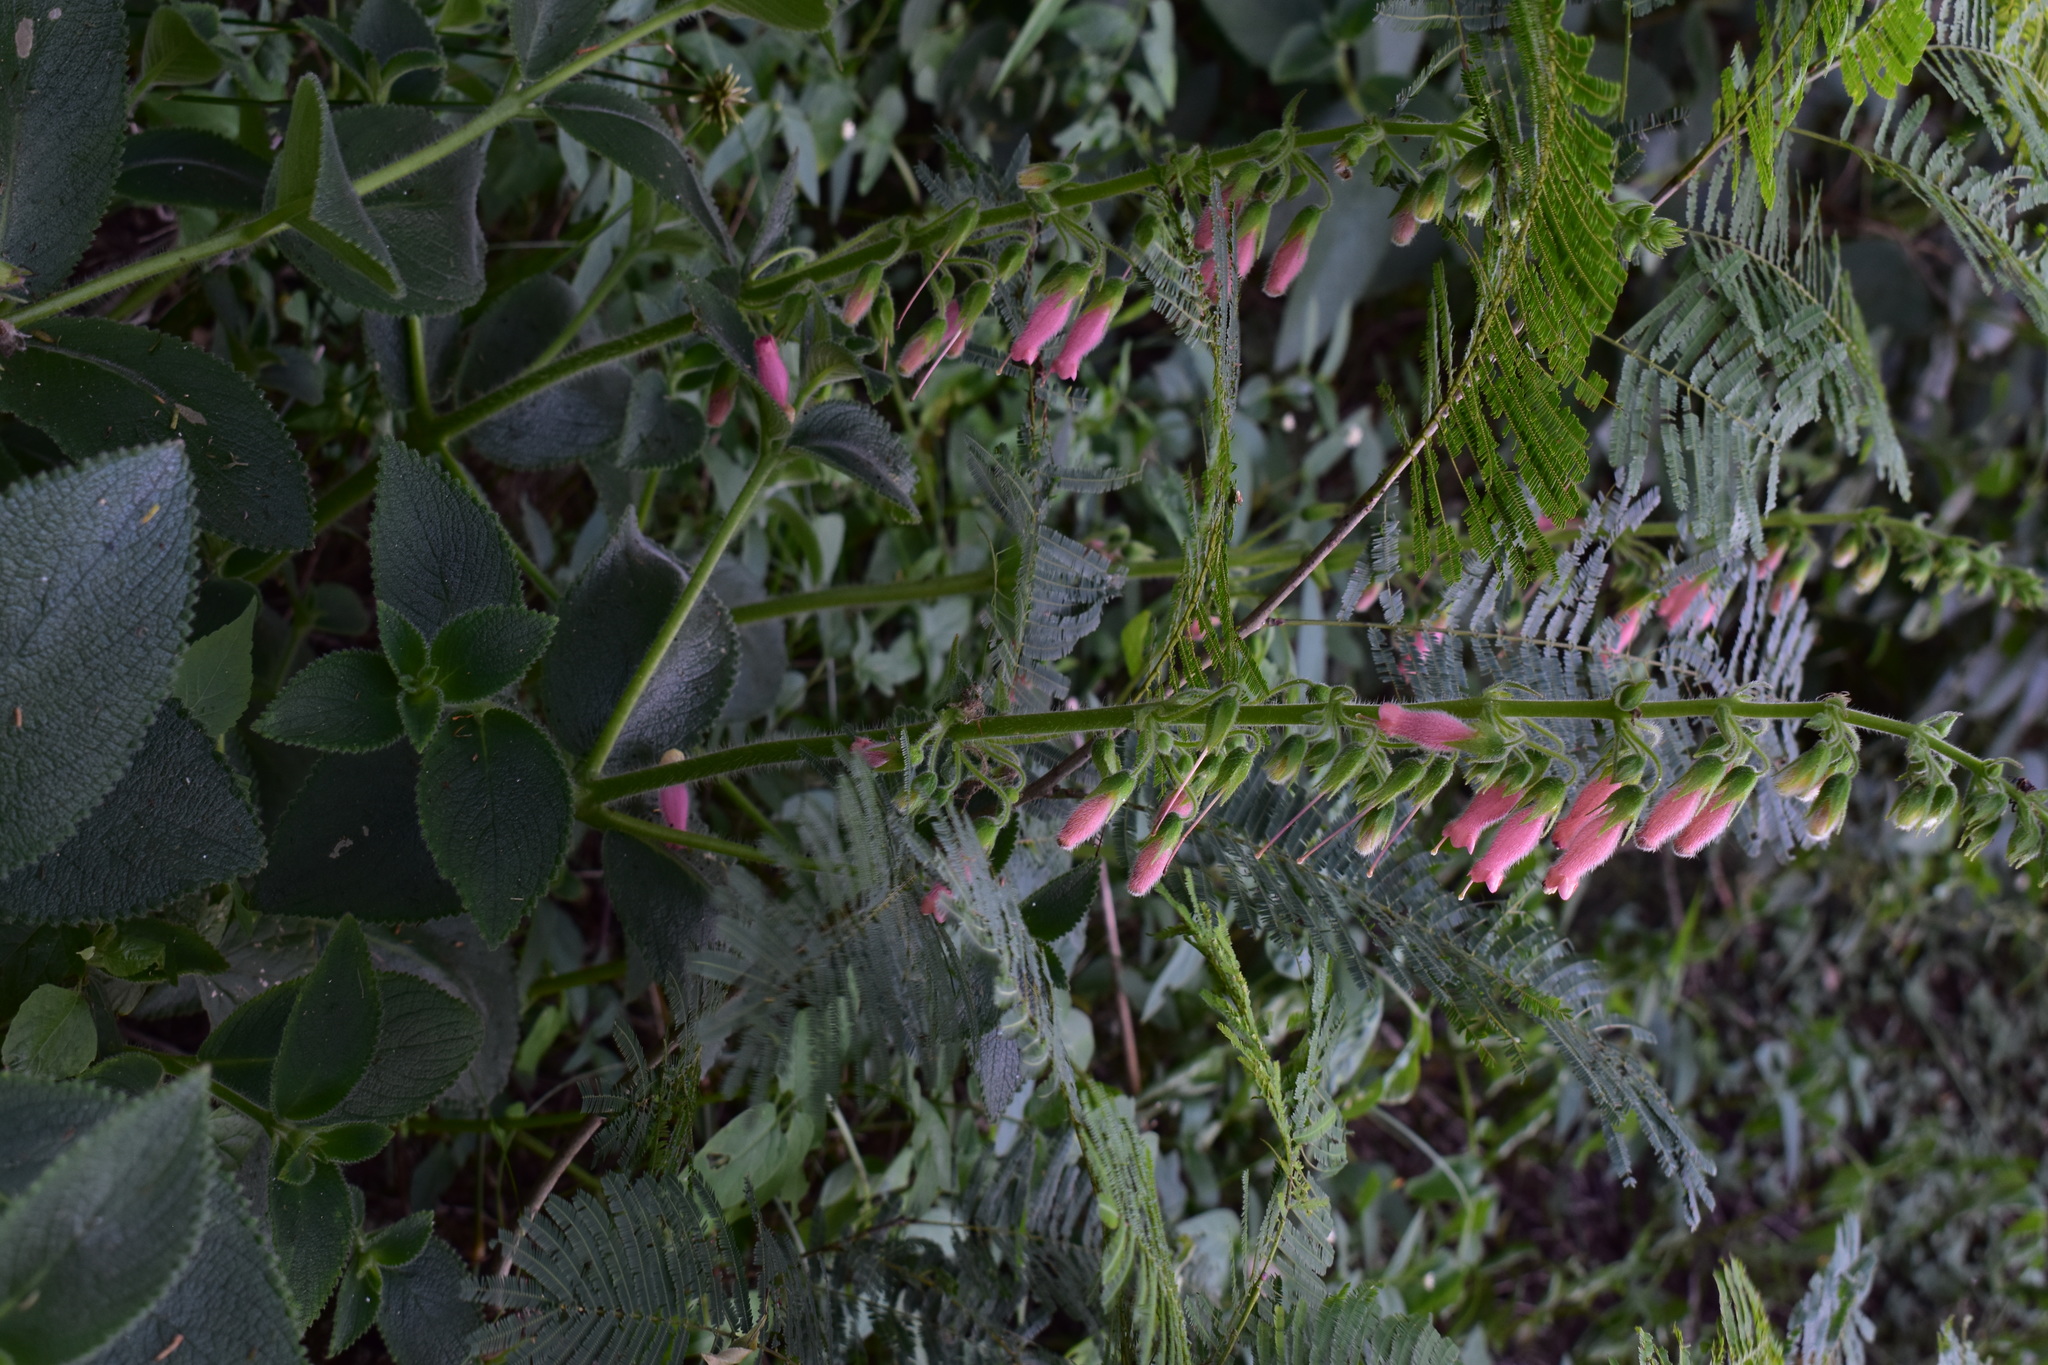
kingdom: Plantae
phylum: Tracheophyta
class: Magnoliopsida
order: Lamiales
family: Gesneriaceae
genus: Sinningia
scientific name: Sinningia sellovii
